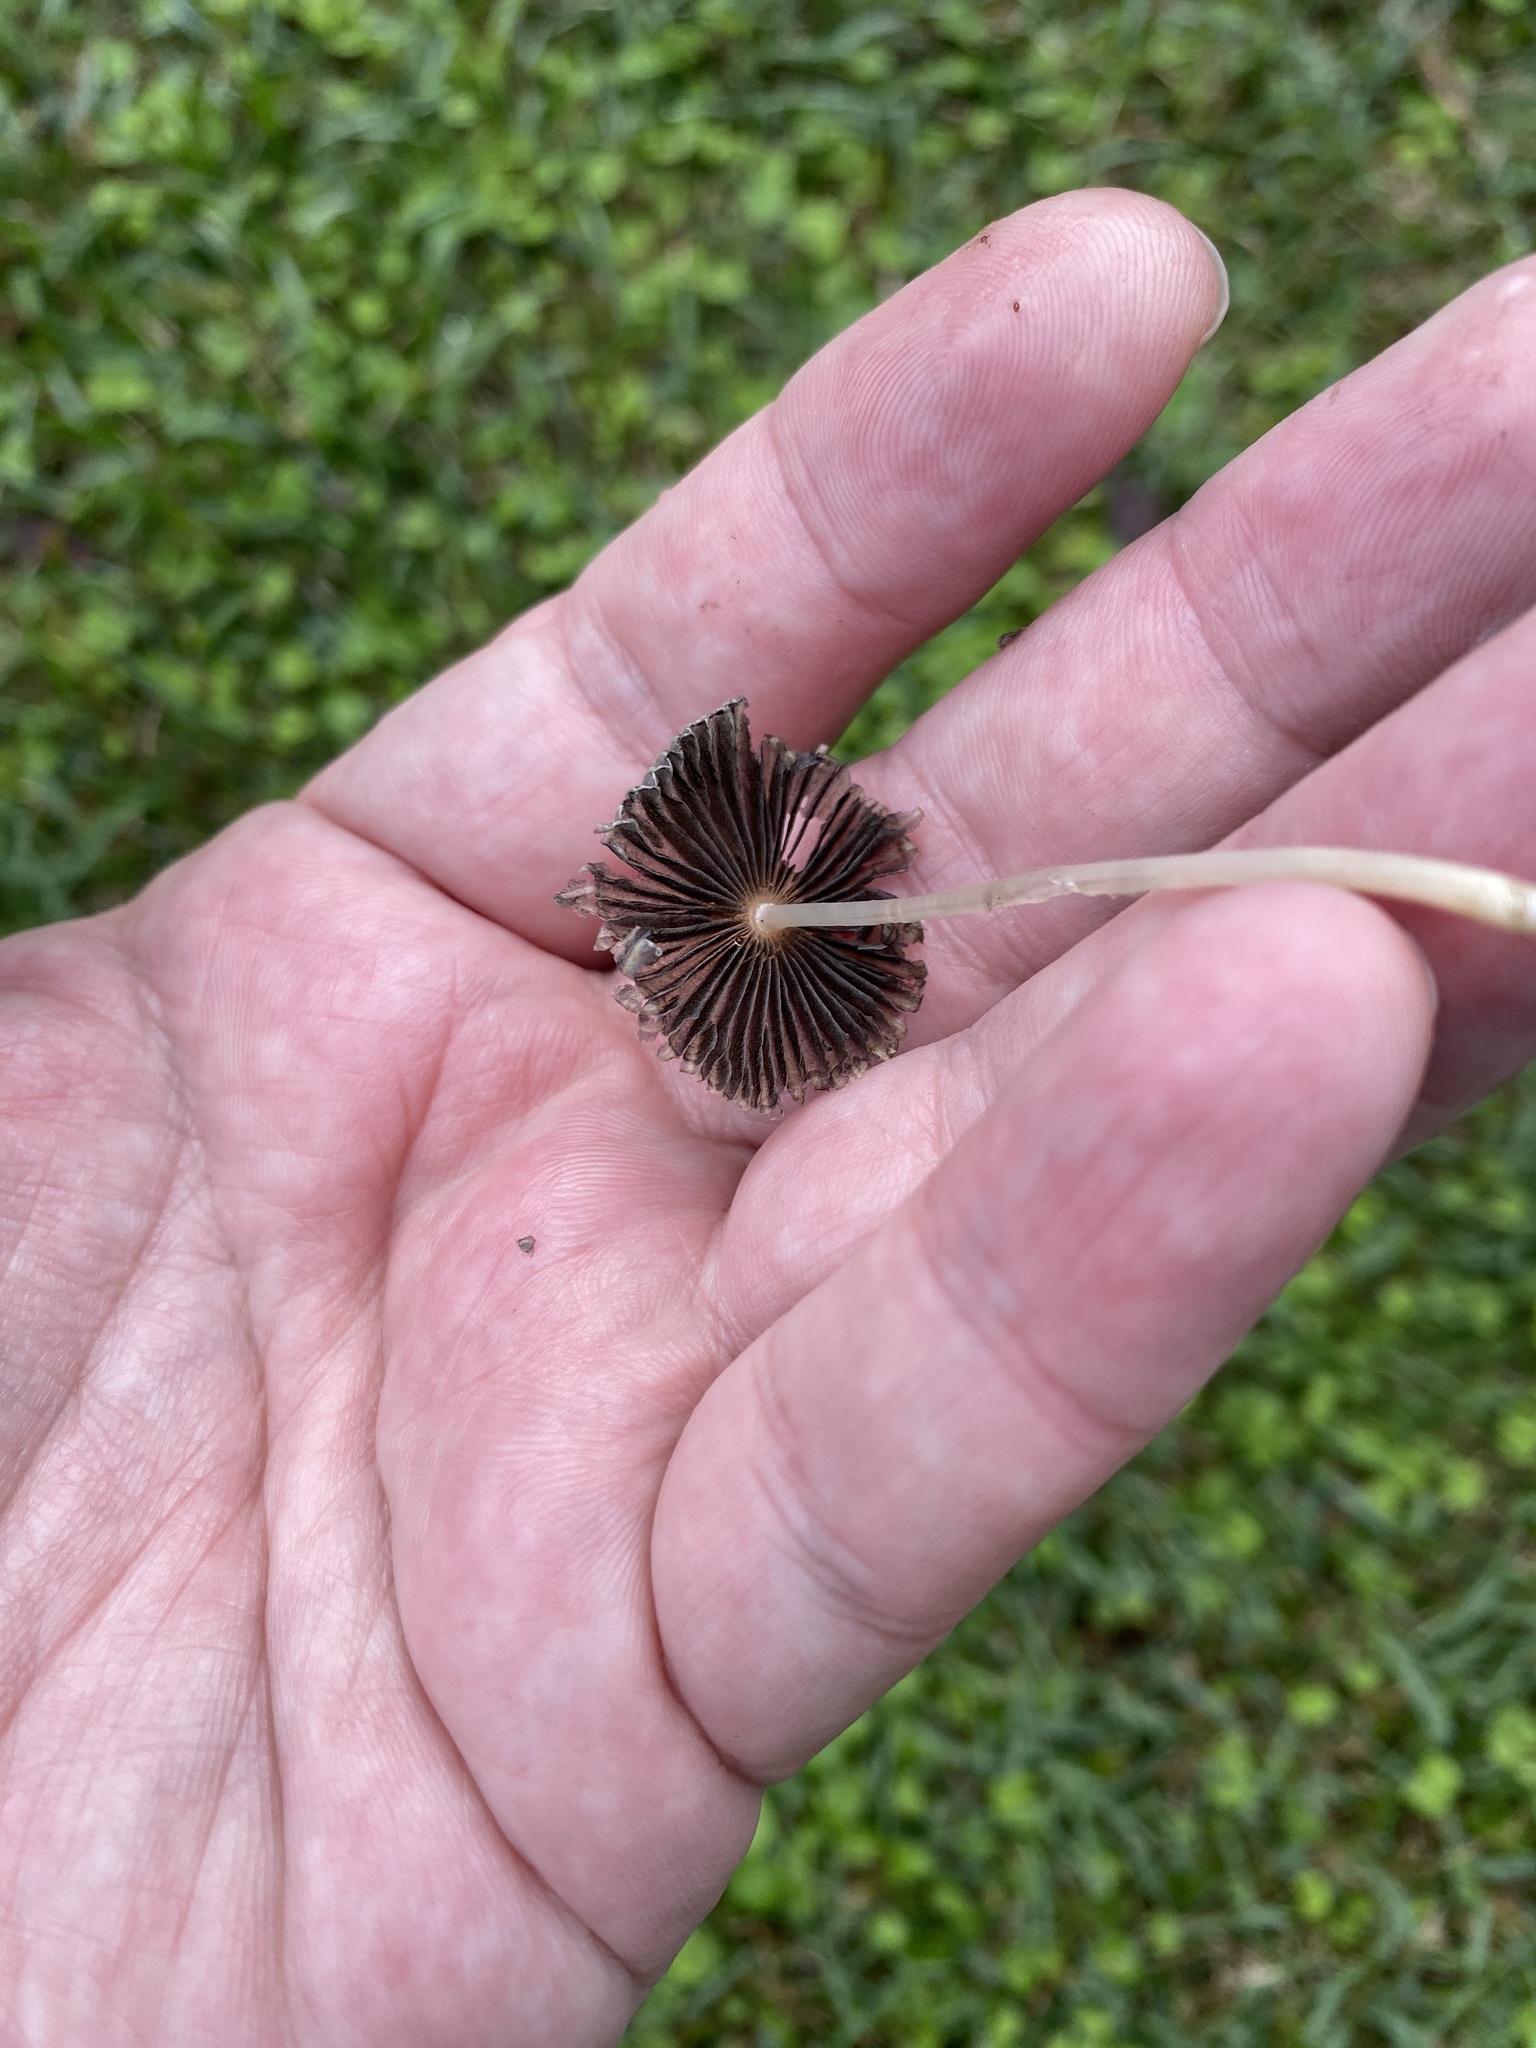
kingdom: Fungi
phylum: Basidiomycota
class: Agaricomycetes
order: Agaricales
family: Psathyrellaceae
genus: Parasola
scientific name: Parasola plicatilis
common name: Pleated inkcap
